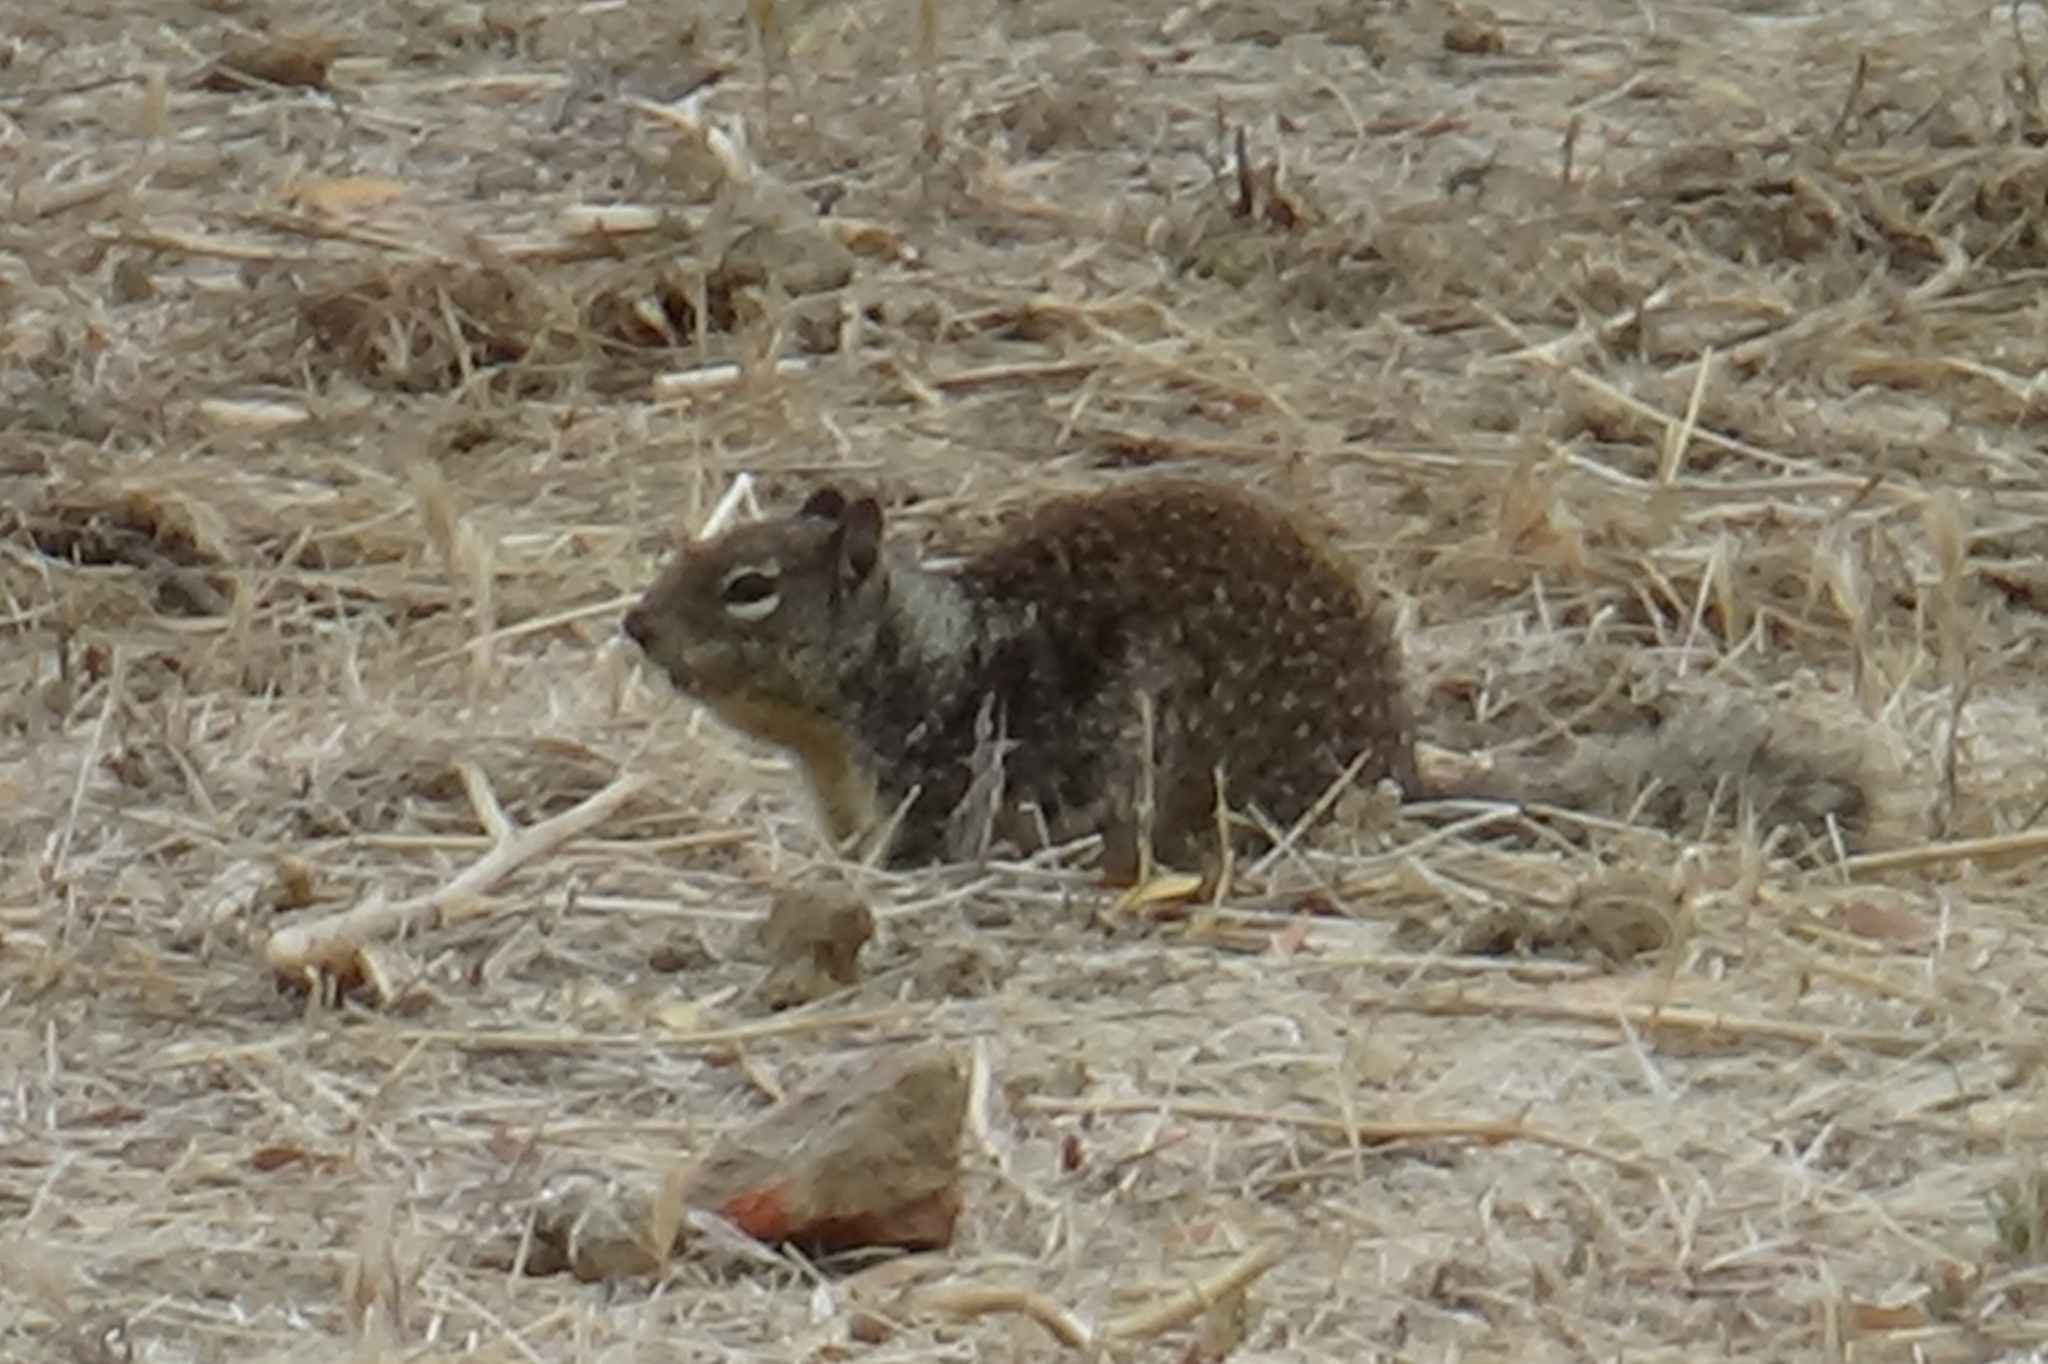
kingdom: Animalia
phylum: Chordata
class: Mammalia
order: Rodentia
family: Sciuridae
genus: Otospermophilus
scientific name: Otospermophilus beecheyi
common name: California ground squirrel
